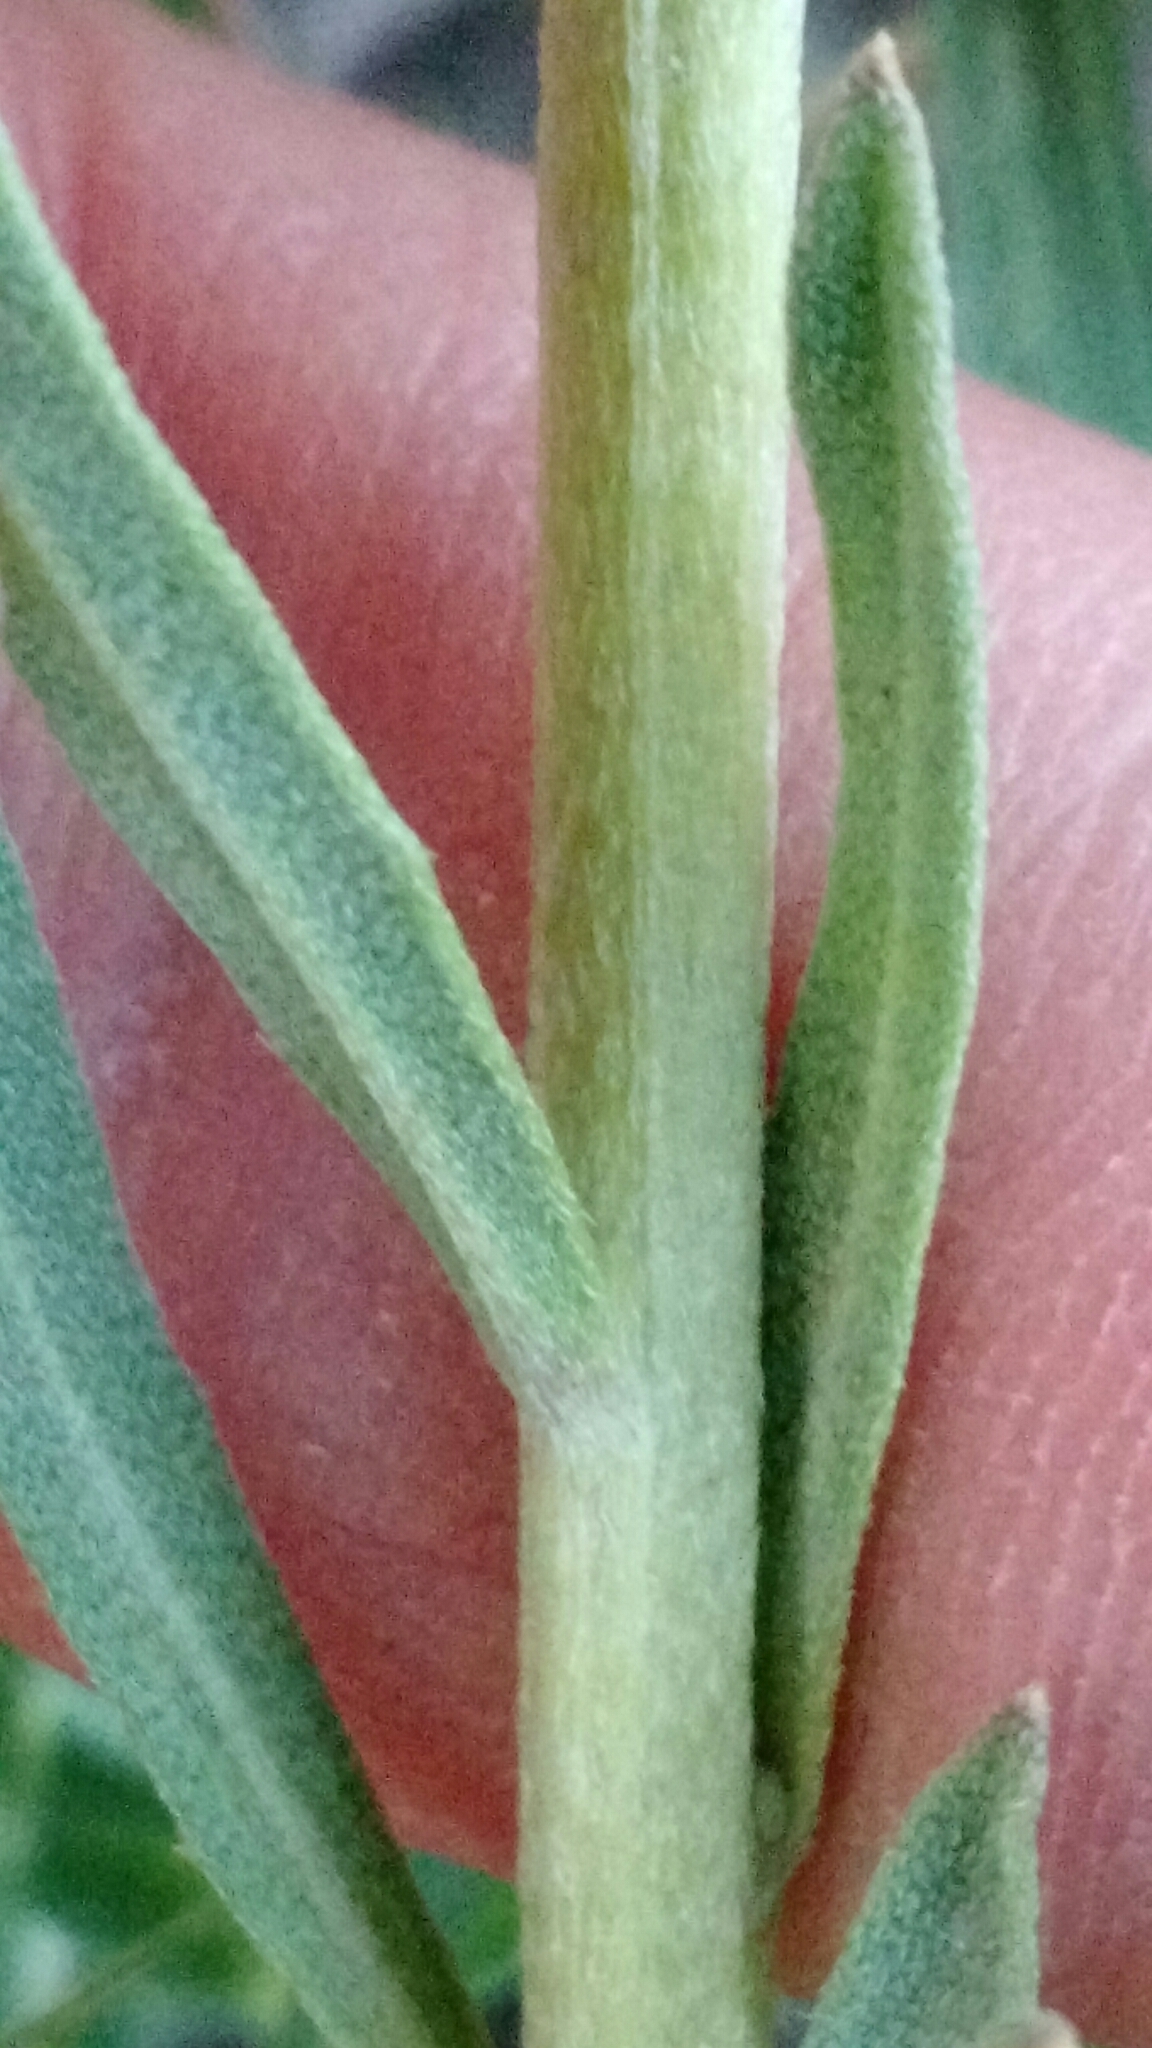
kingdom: Plantae
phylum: Tracheophyta
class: Magnoliopsida
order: Brassicales
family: Brassicaceae
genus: Erysimum
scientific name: Erysimum capitatum
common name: Western wallflower
